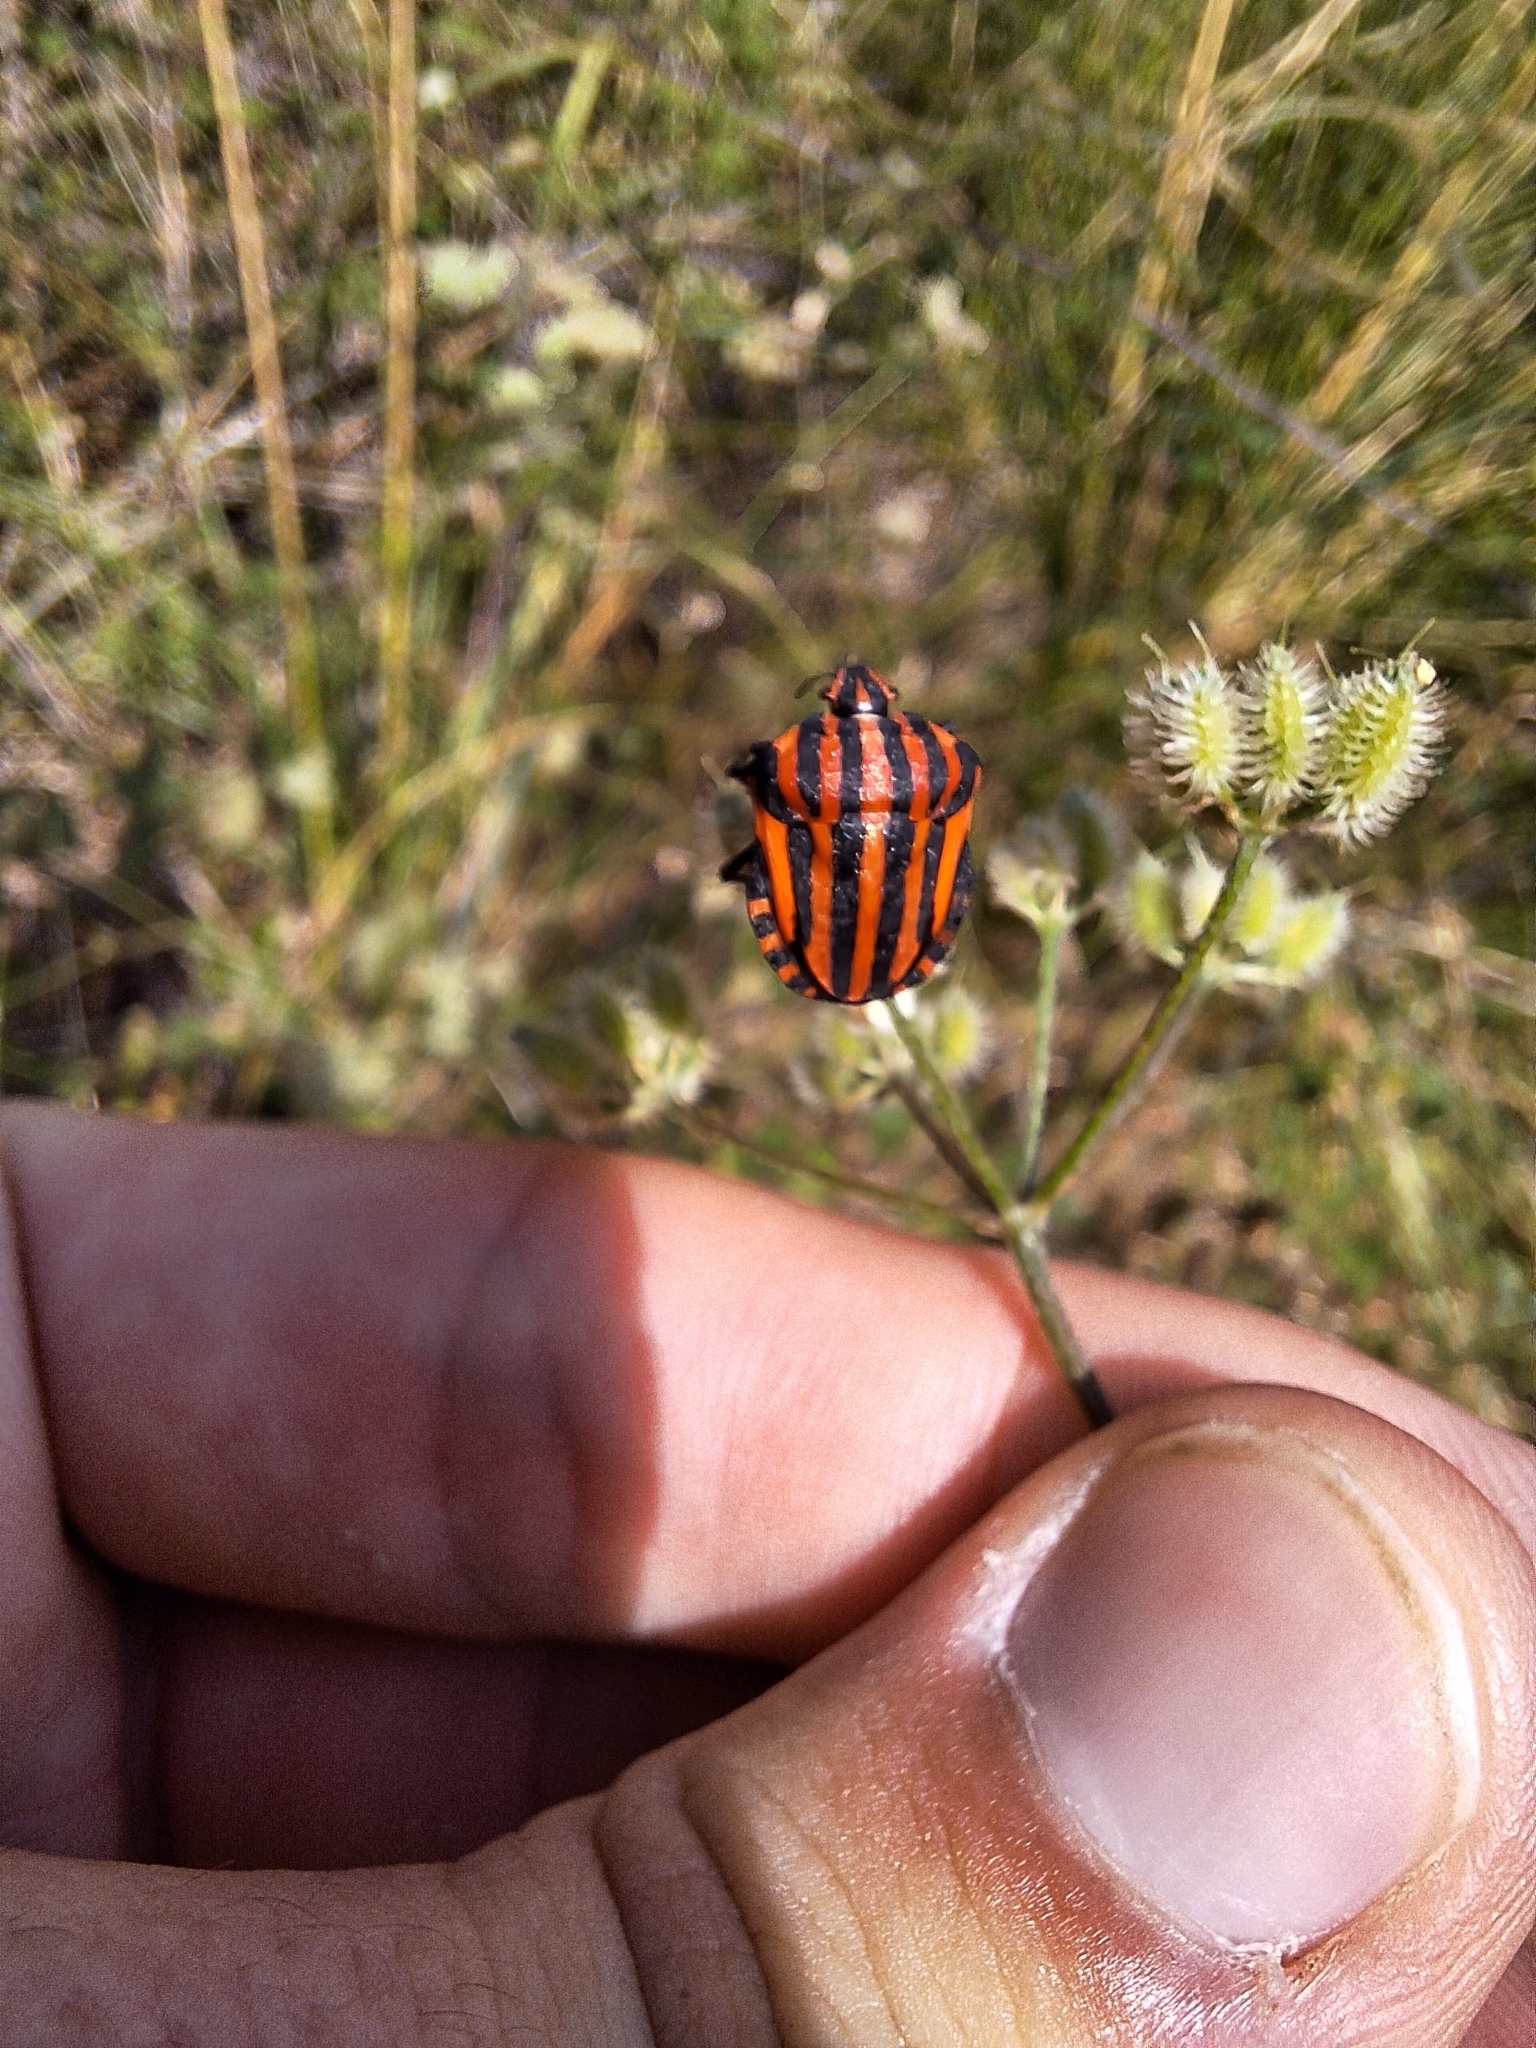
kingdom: Animalia
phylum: Arthropoda
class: Insecta
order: Hemiptera
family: Pentatomidae
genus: Graphosoma
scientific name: Graphosoma italicum
